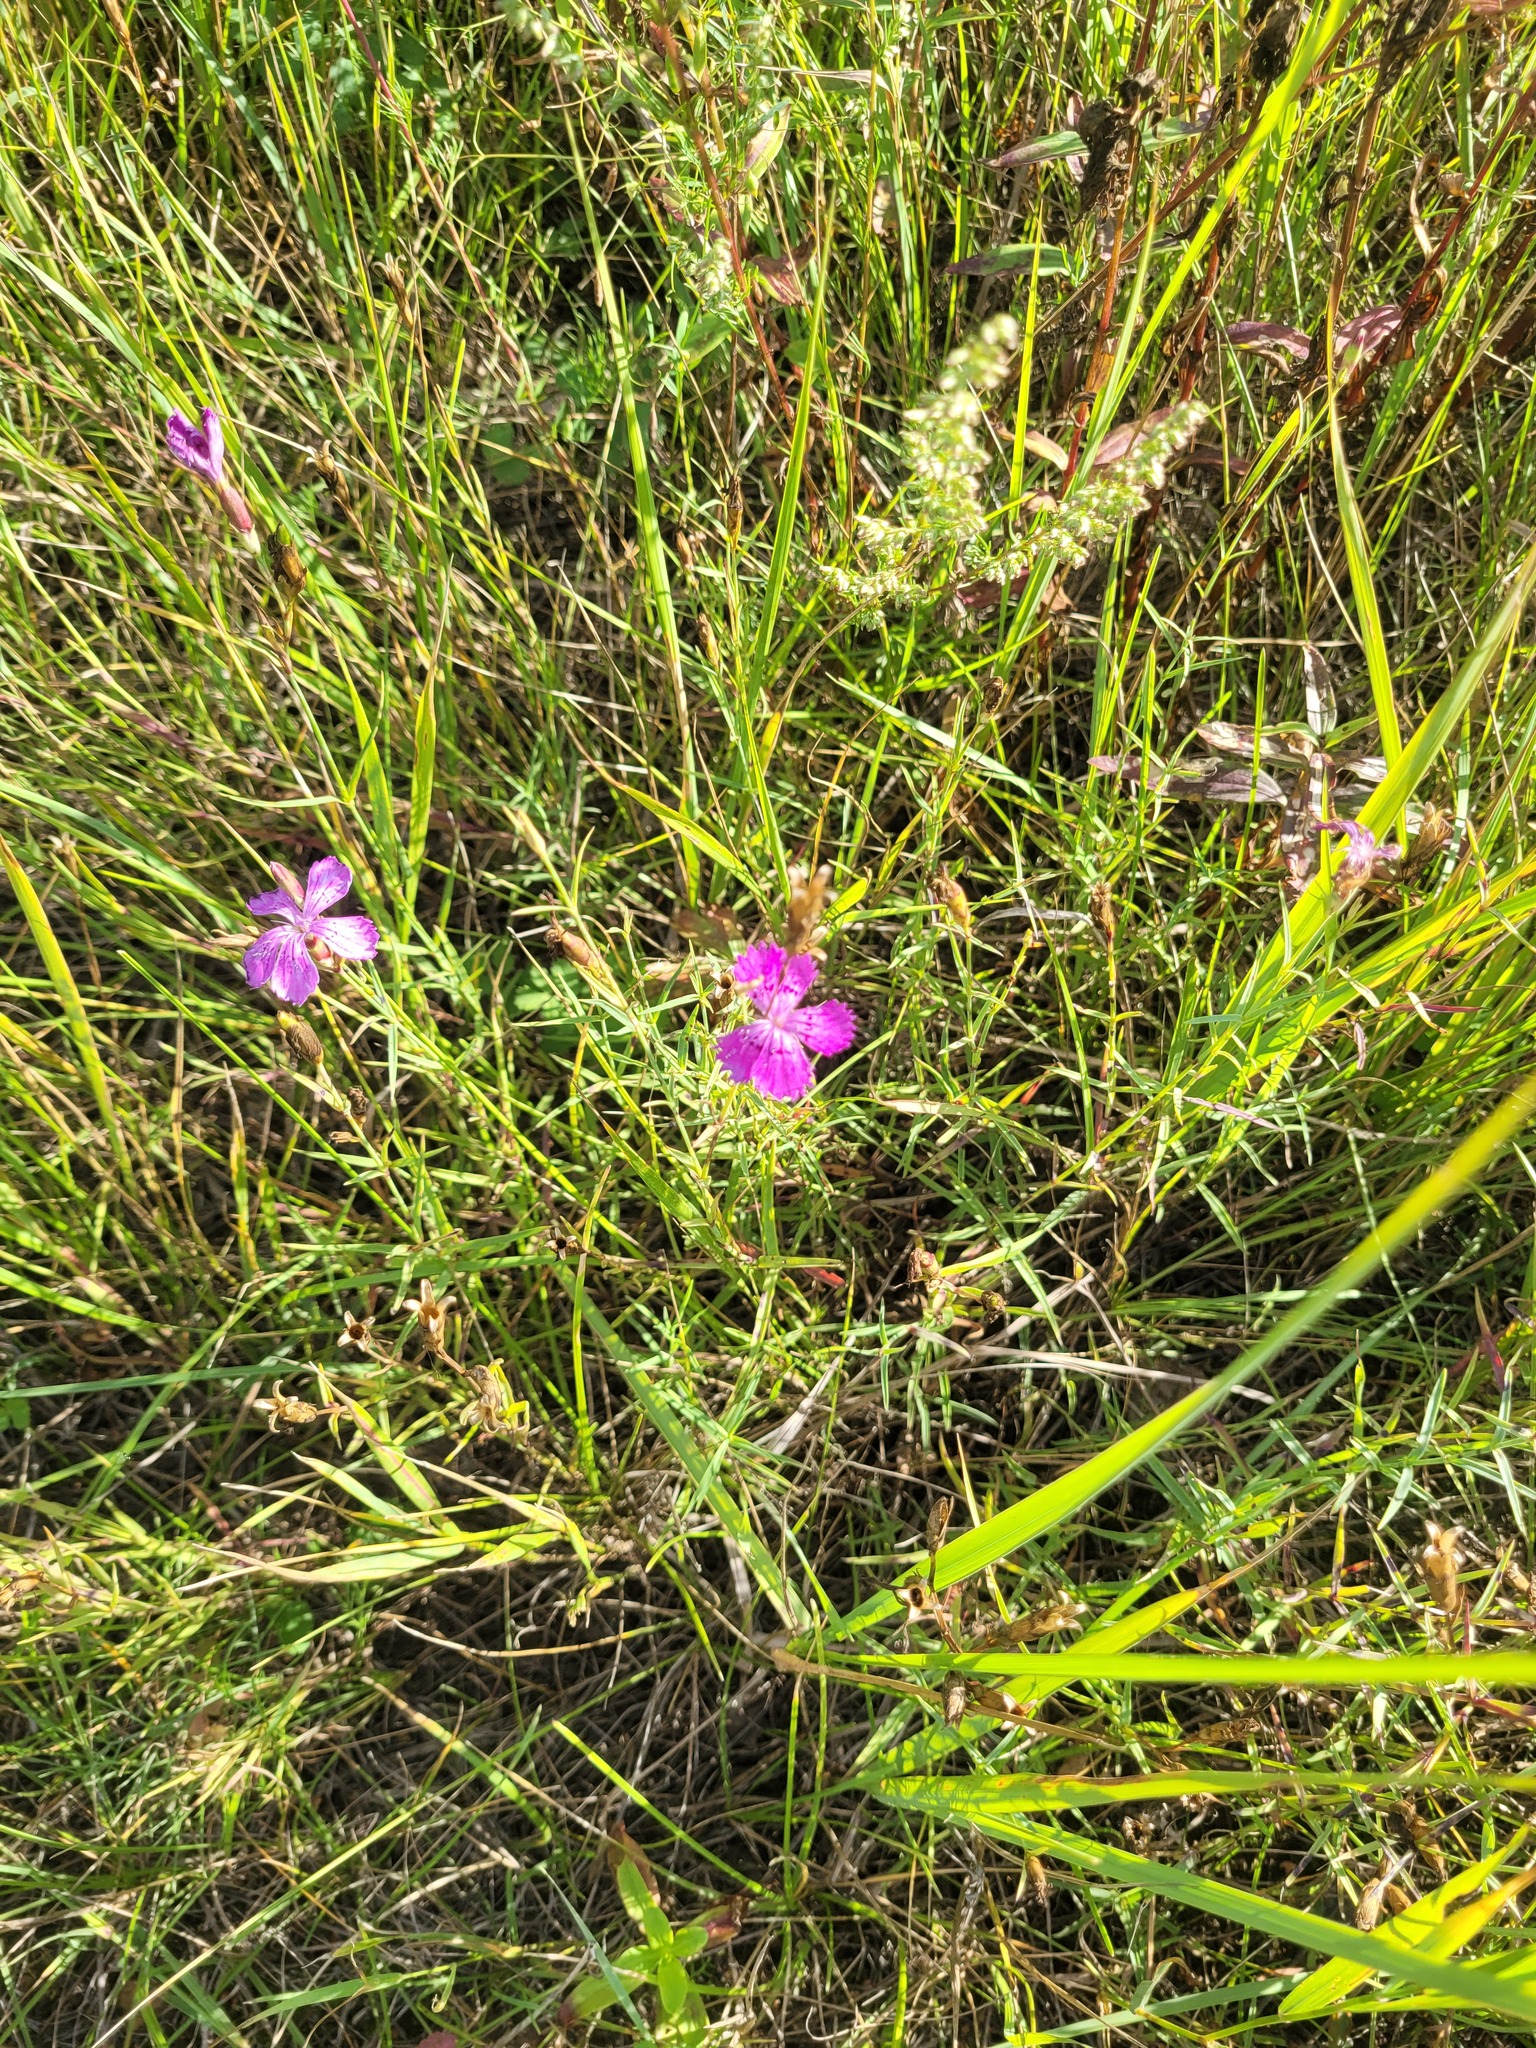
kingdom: Plantae
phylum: Tracheophyta
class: Magnoliopsida
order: Caryophyllales
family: Caryophyllaceae
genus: Dianthus
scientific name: Dianthus chinensis
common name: Rainbow pink
